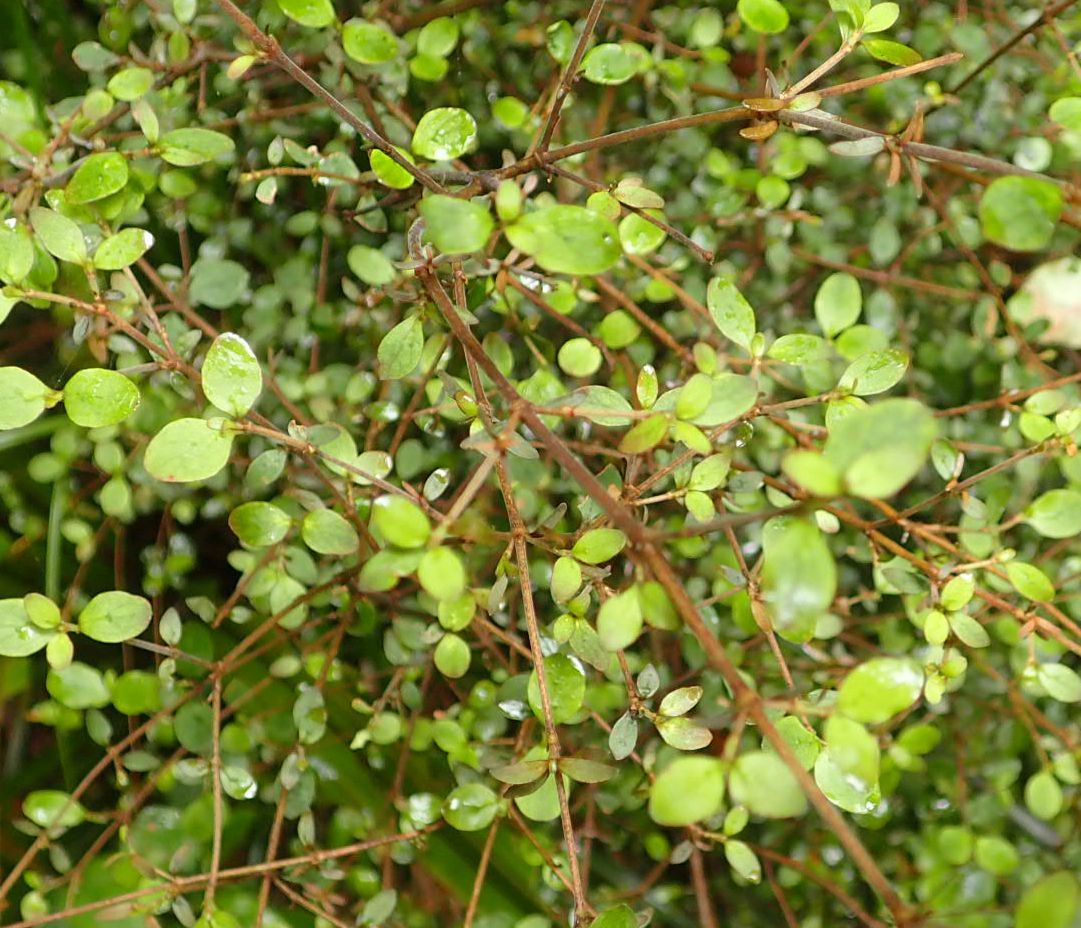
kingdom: Plantae
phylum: Tracheophyta
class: Magnoliopsida
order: Gentianales
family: Rubiaceae
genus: Coprosma
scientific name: Coprosma rhamnoides
